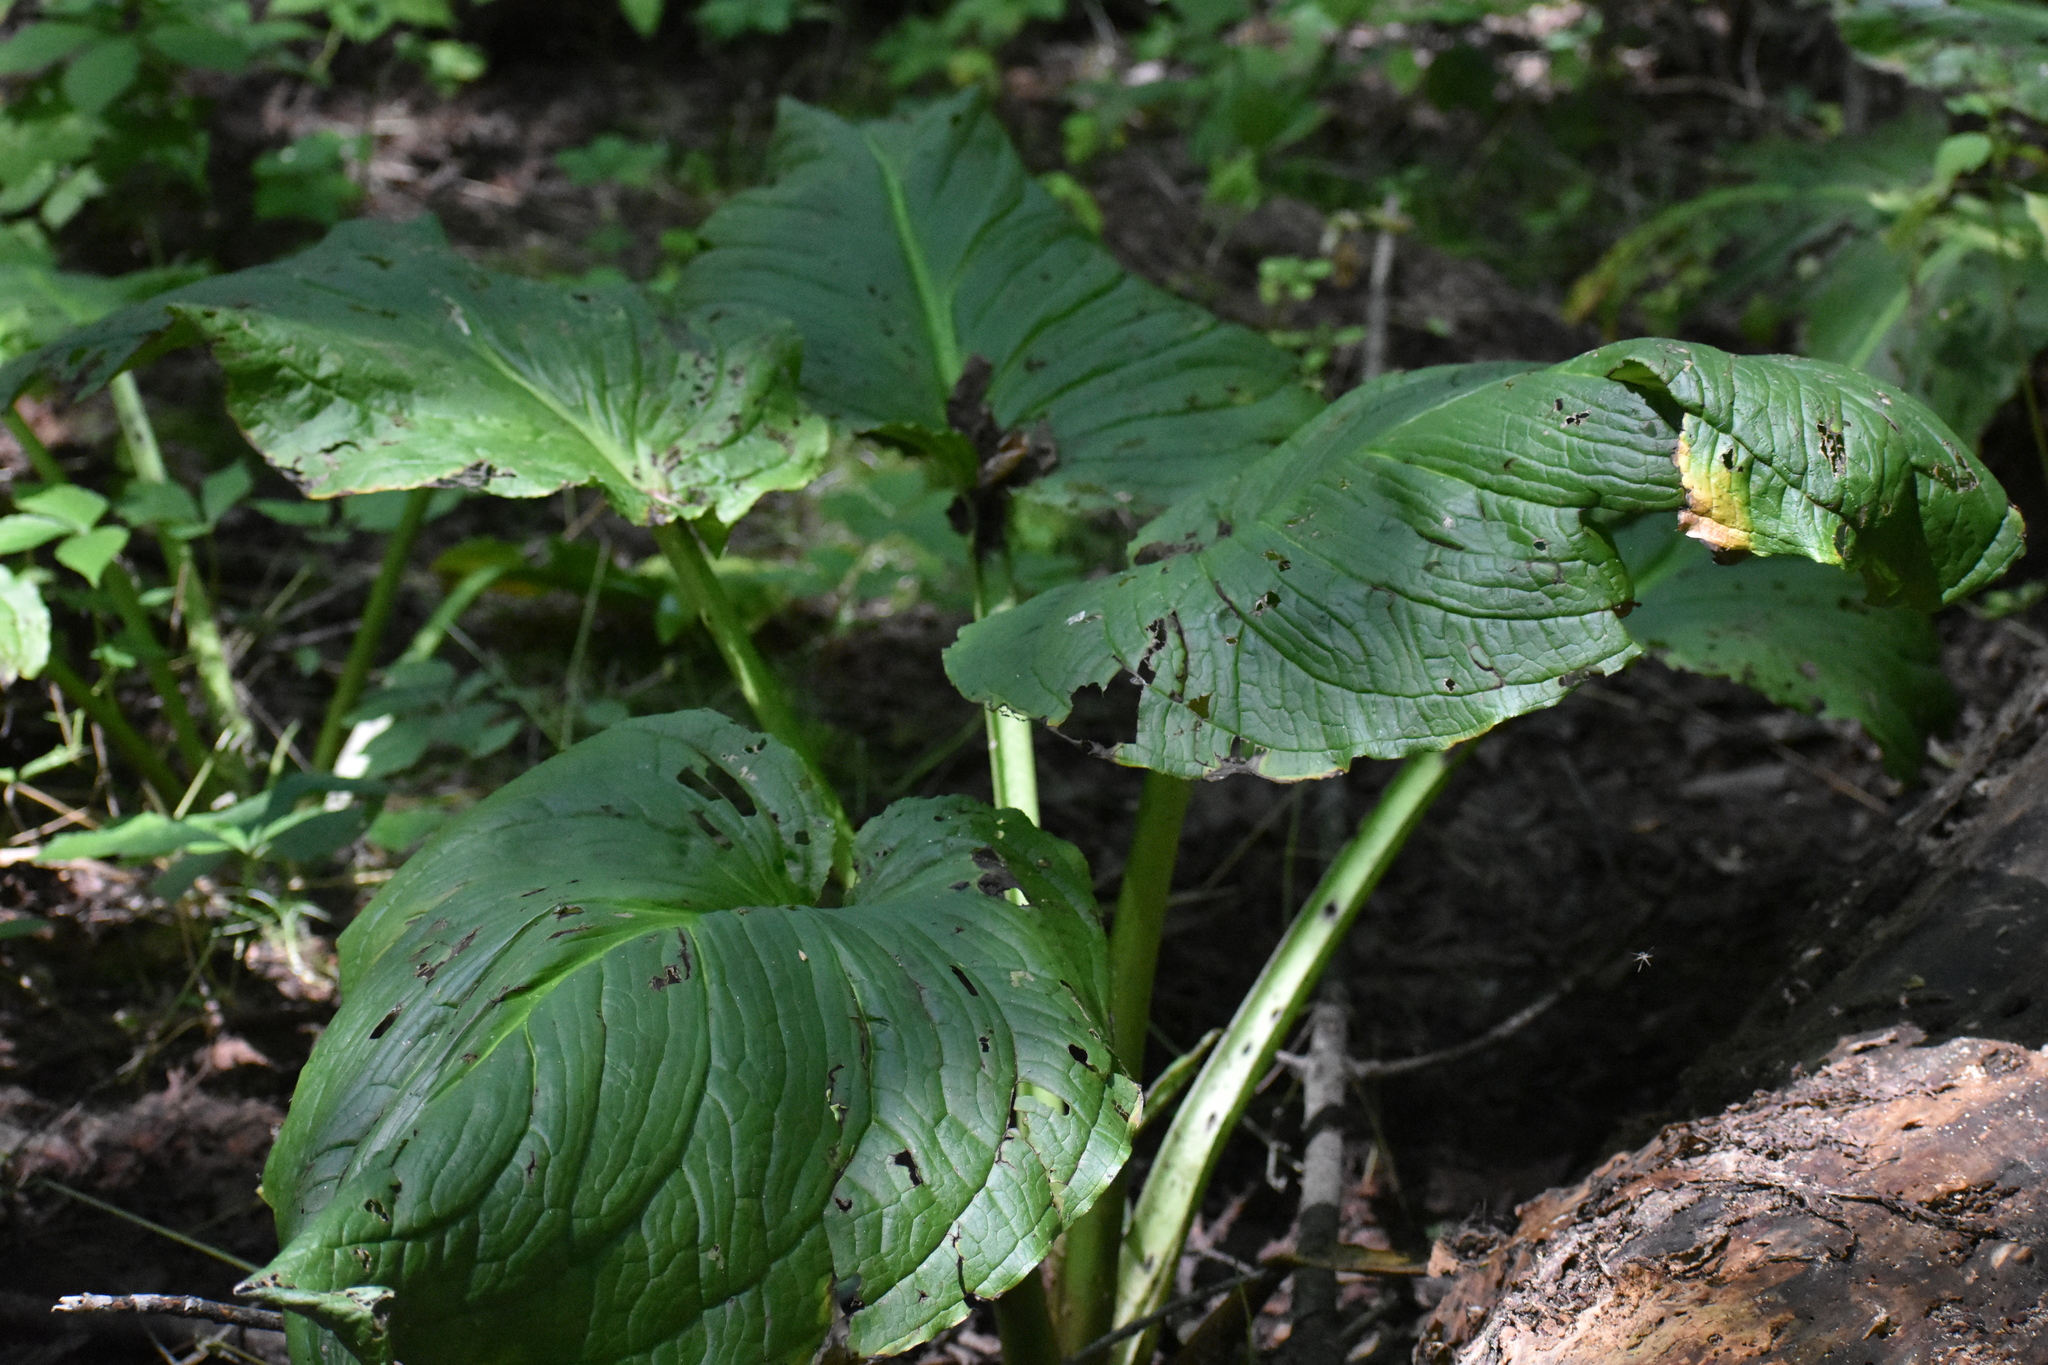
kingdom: Plantae
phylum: Tracheophyta
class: Liliopsida
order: Alismatales
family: Araceae
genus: Symplocarpus
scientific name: Symplocarpus foetidus
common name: Eastern skunk cabbage
